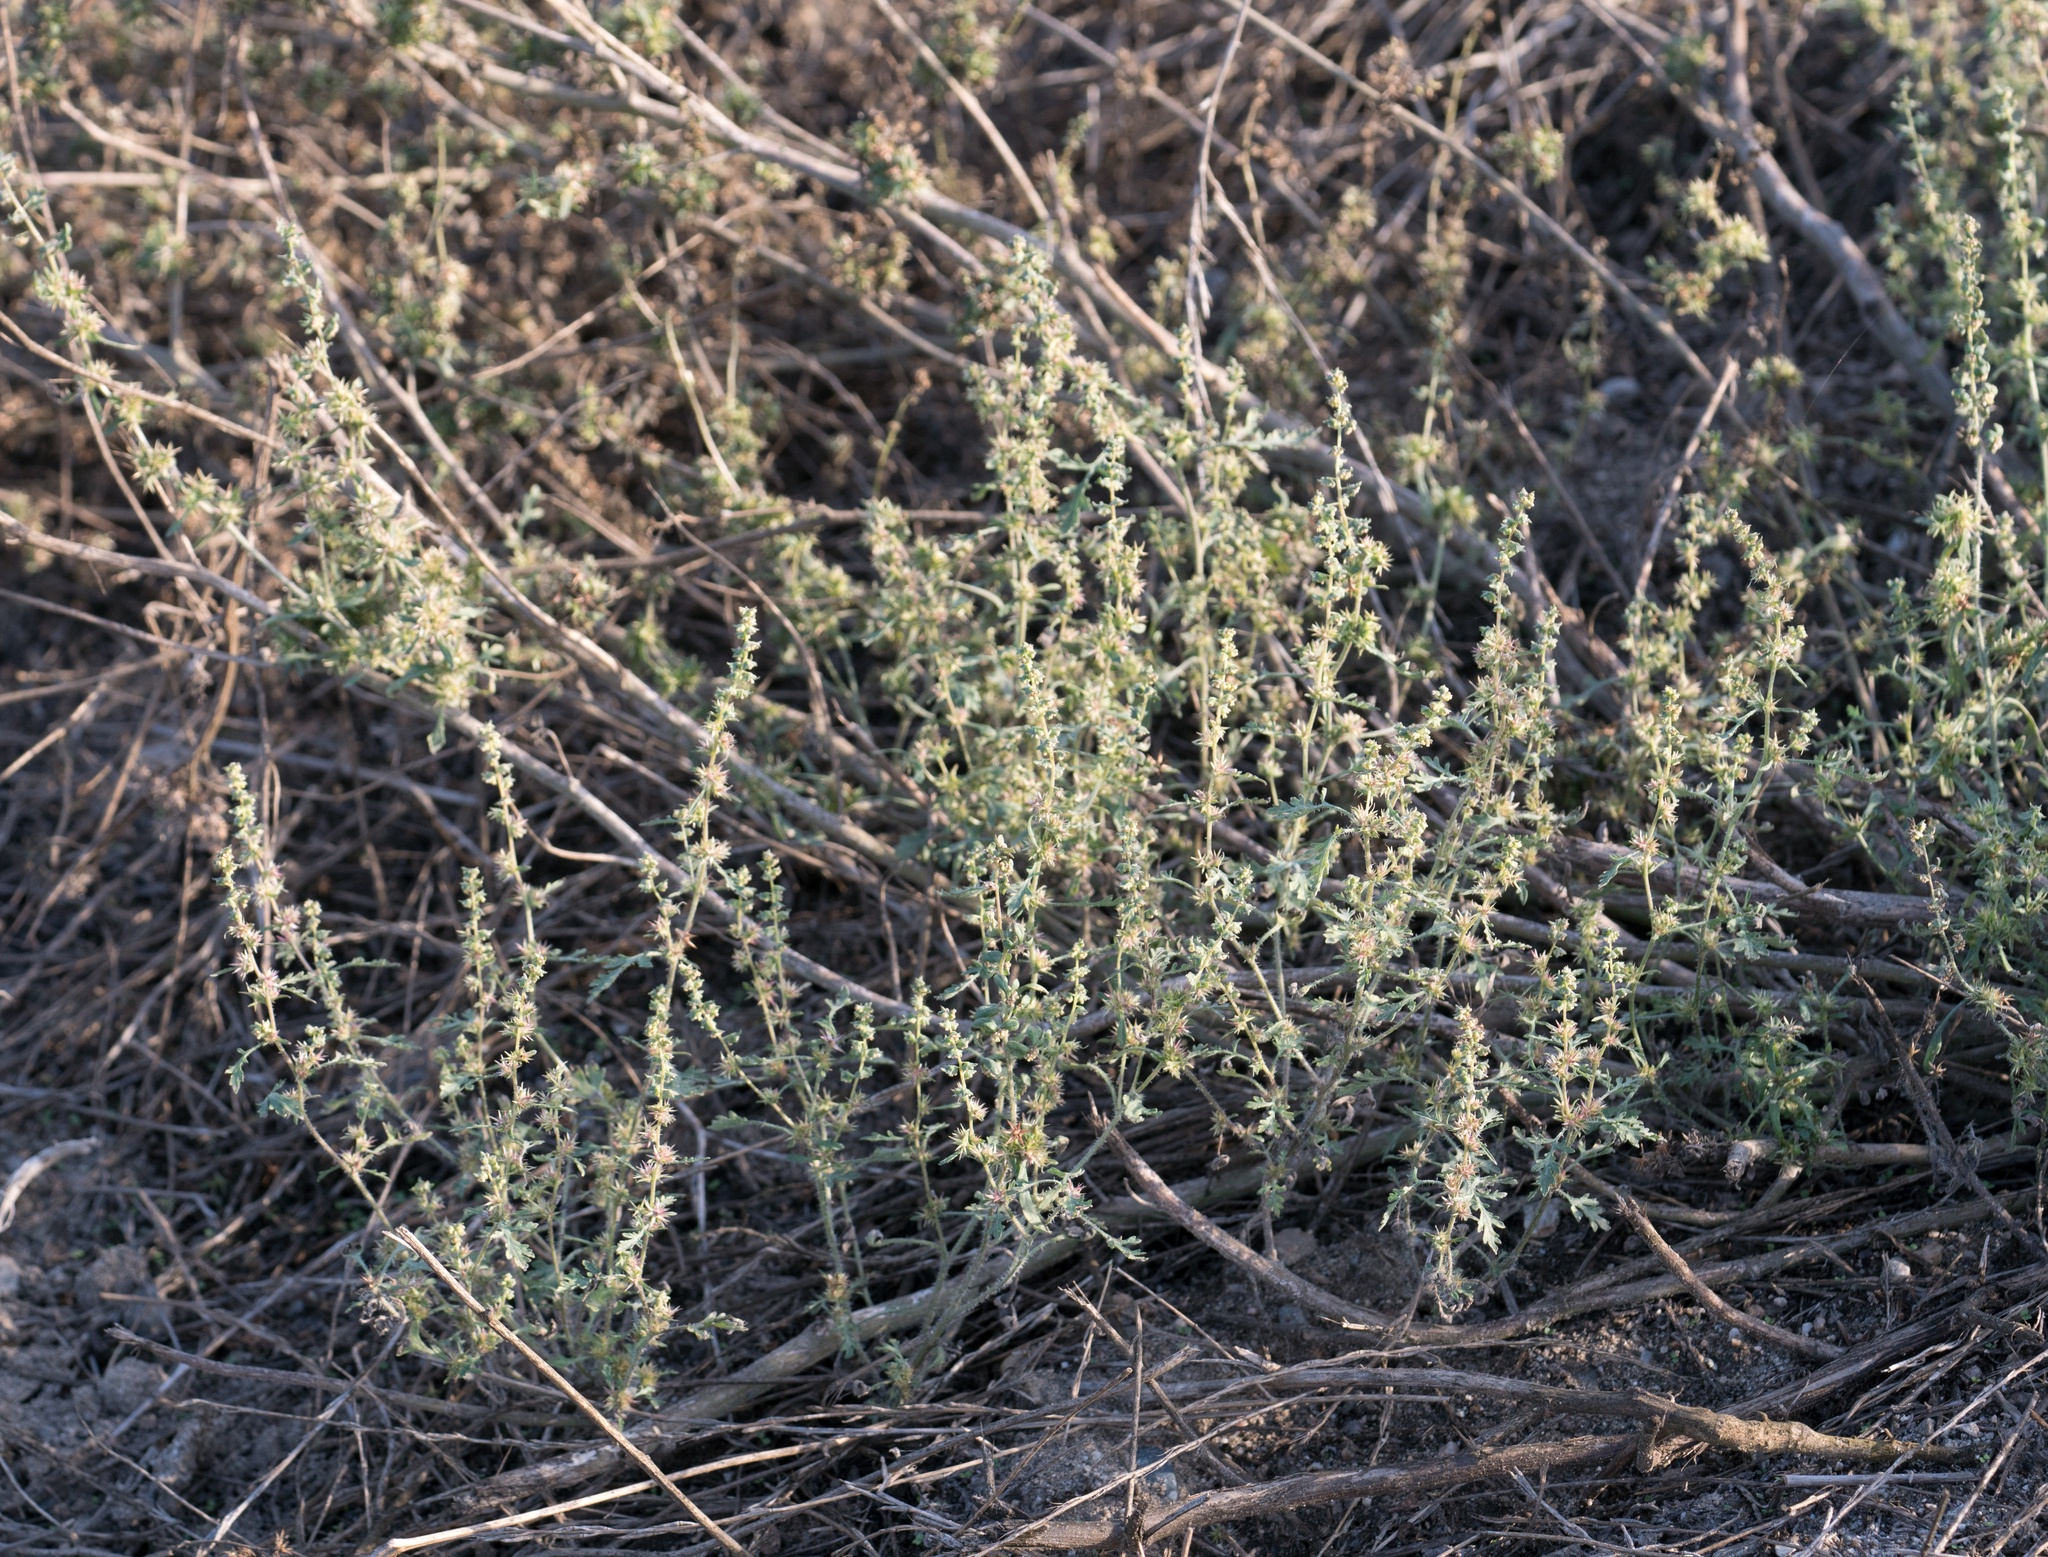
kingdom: Plantae
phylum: Tracheophyta
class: Magnoliopsida
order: Asterales
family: Asteraceae
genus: Ambrosia
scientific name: Ambrosia acanthicarpa
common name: Hooker's bur ragweed
